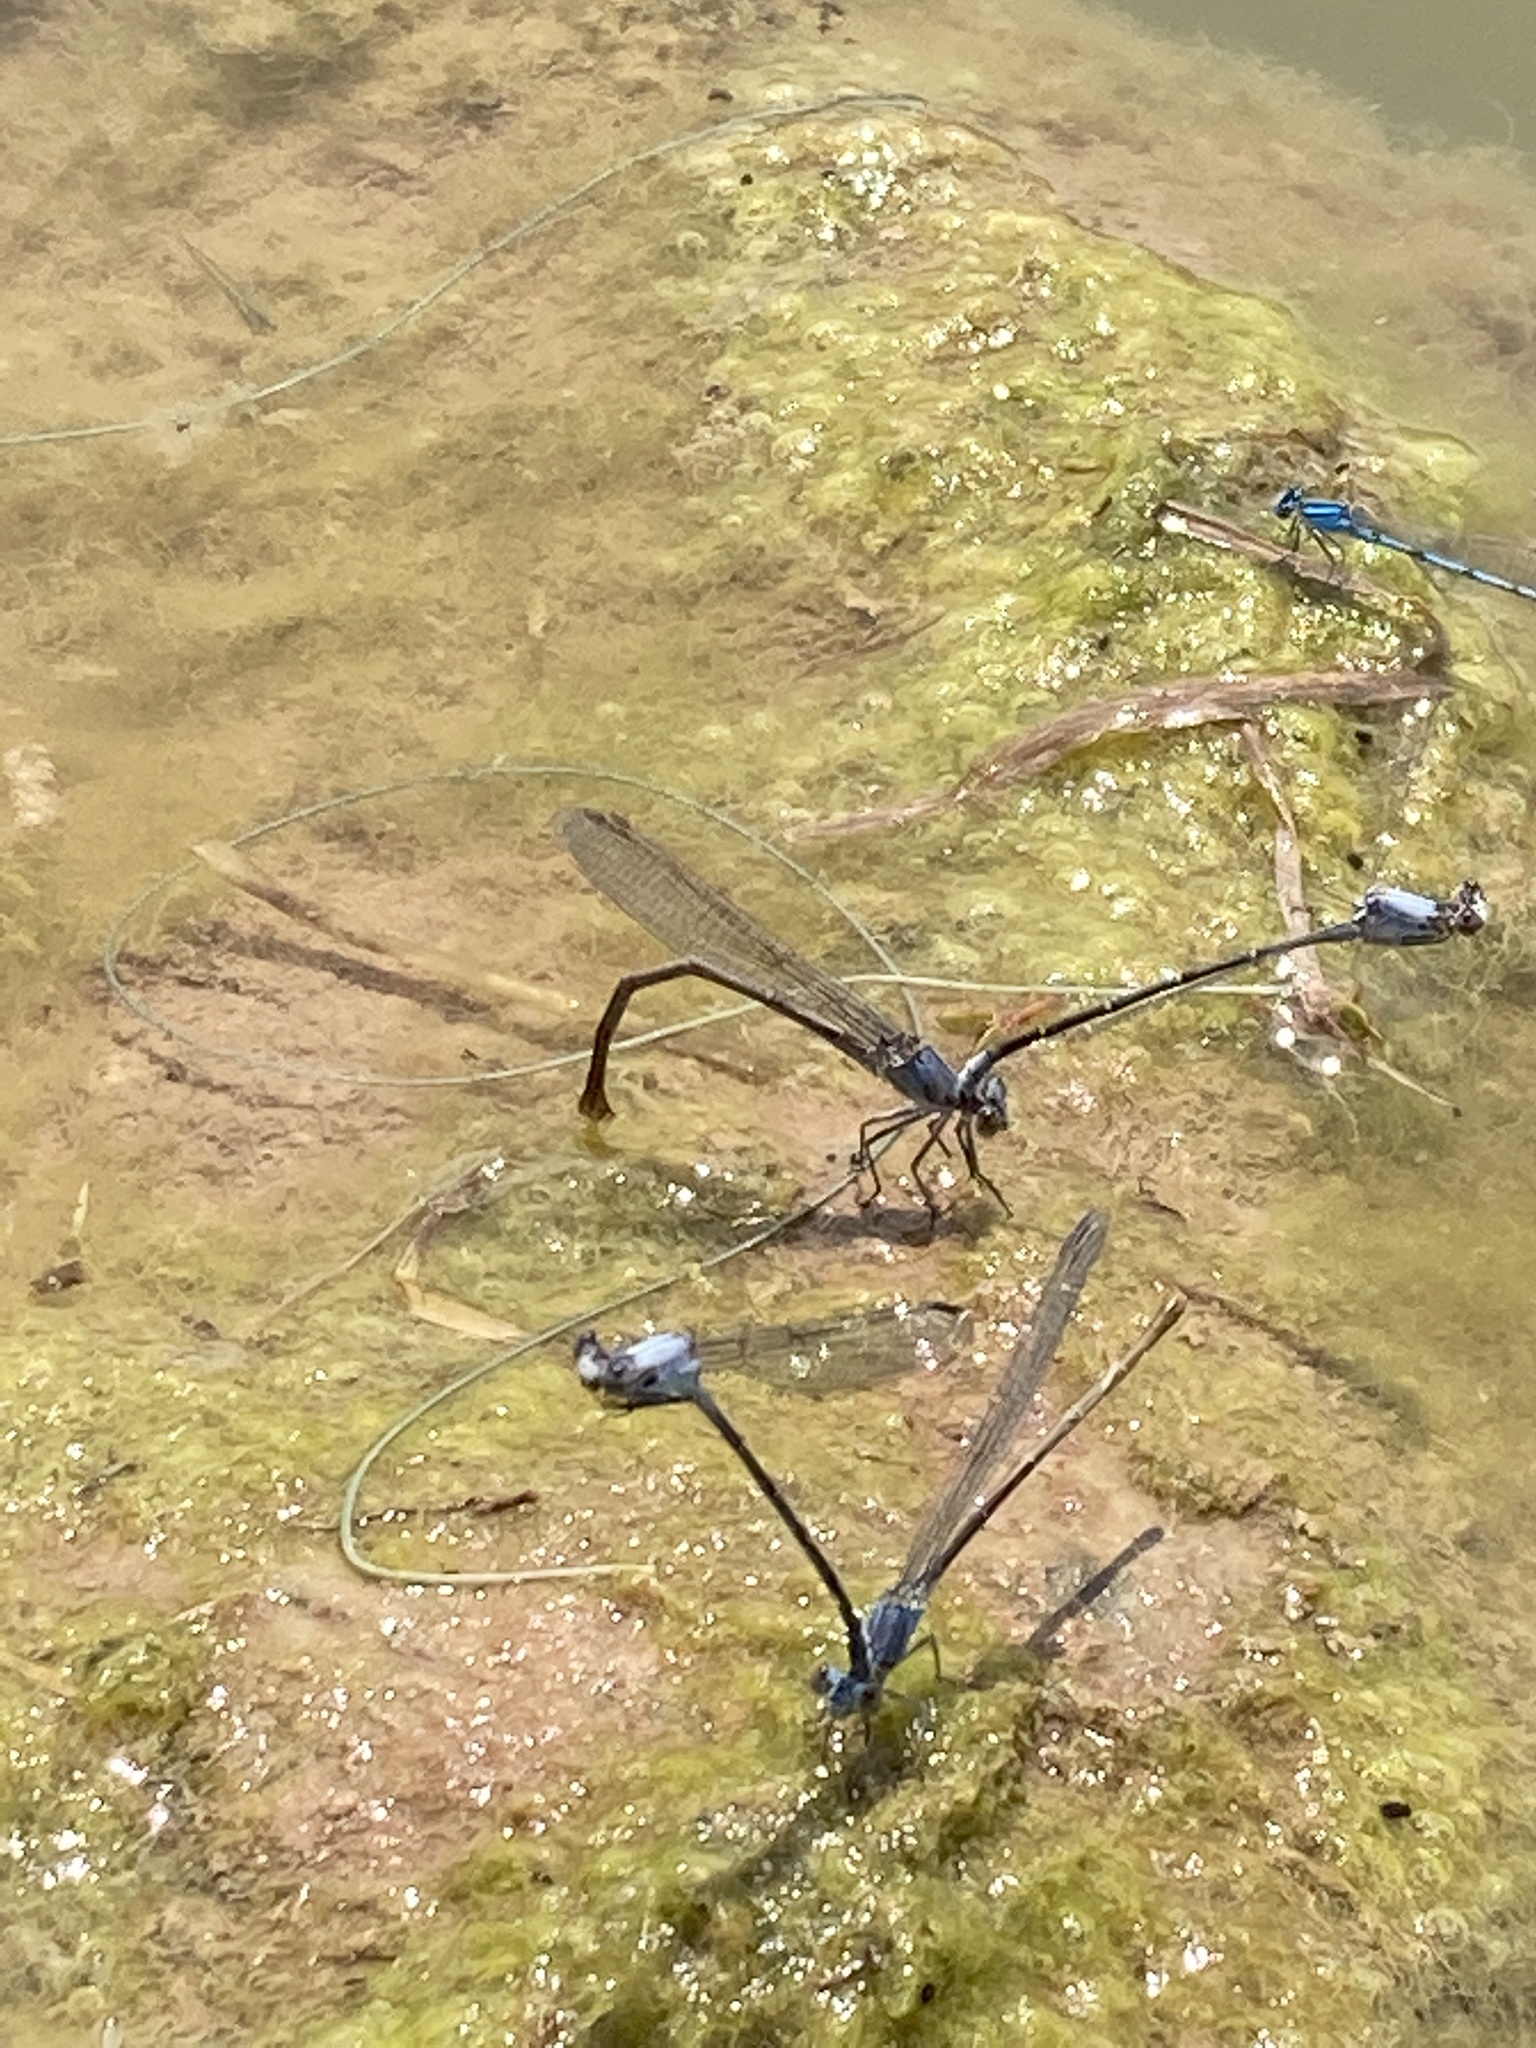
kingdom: Animalia
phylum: Arthropoda
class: Insecta
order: Odonata
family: Coenagrionidae
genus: Argia
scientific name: Argia moesta
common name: Powdered dancer
